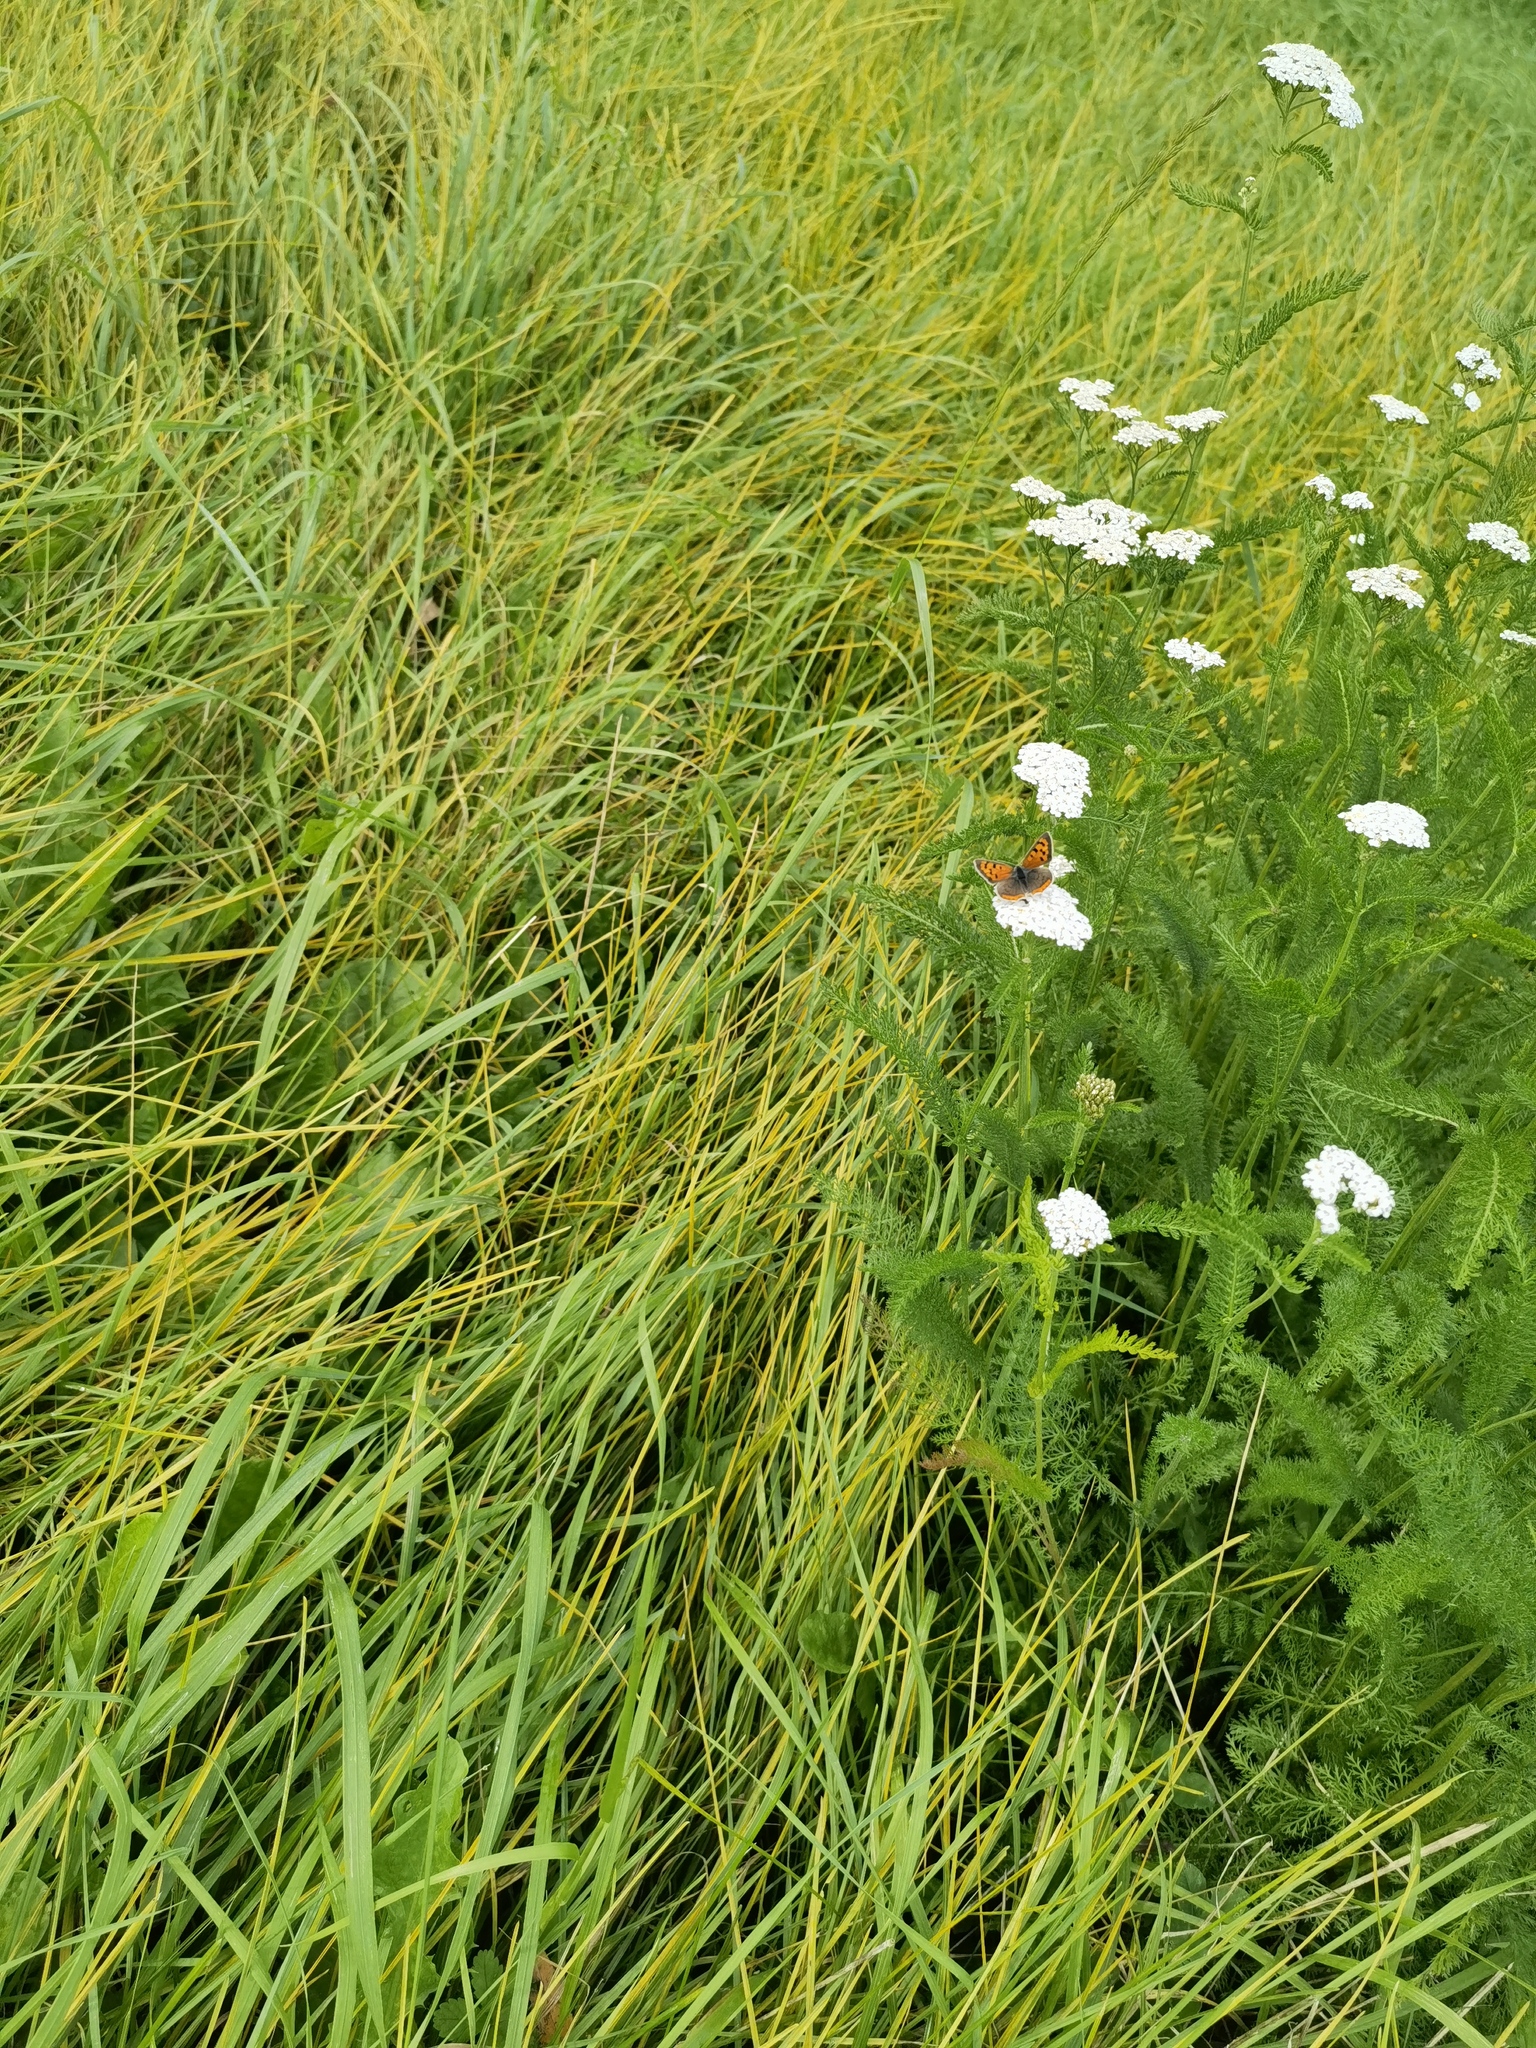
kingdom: Plantae
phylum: Tracheophyta
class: Magnoliopsida
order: Asterales
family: Asteraceae
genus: Achillea
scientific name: Achillea millefolium
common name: Yarrow
